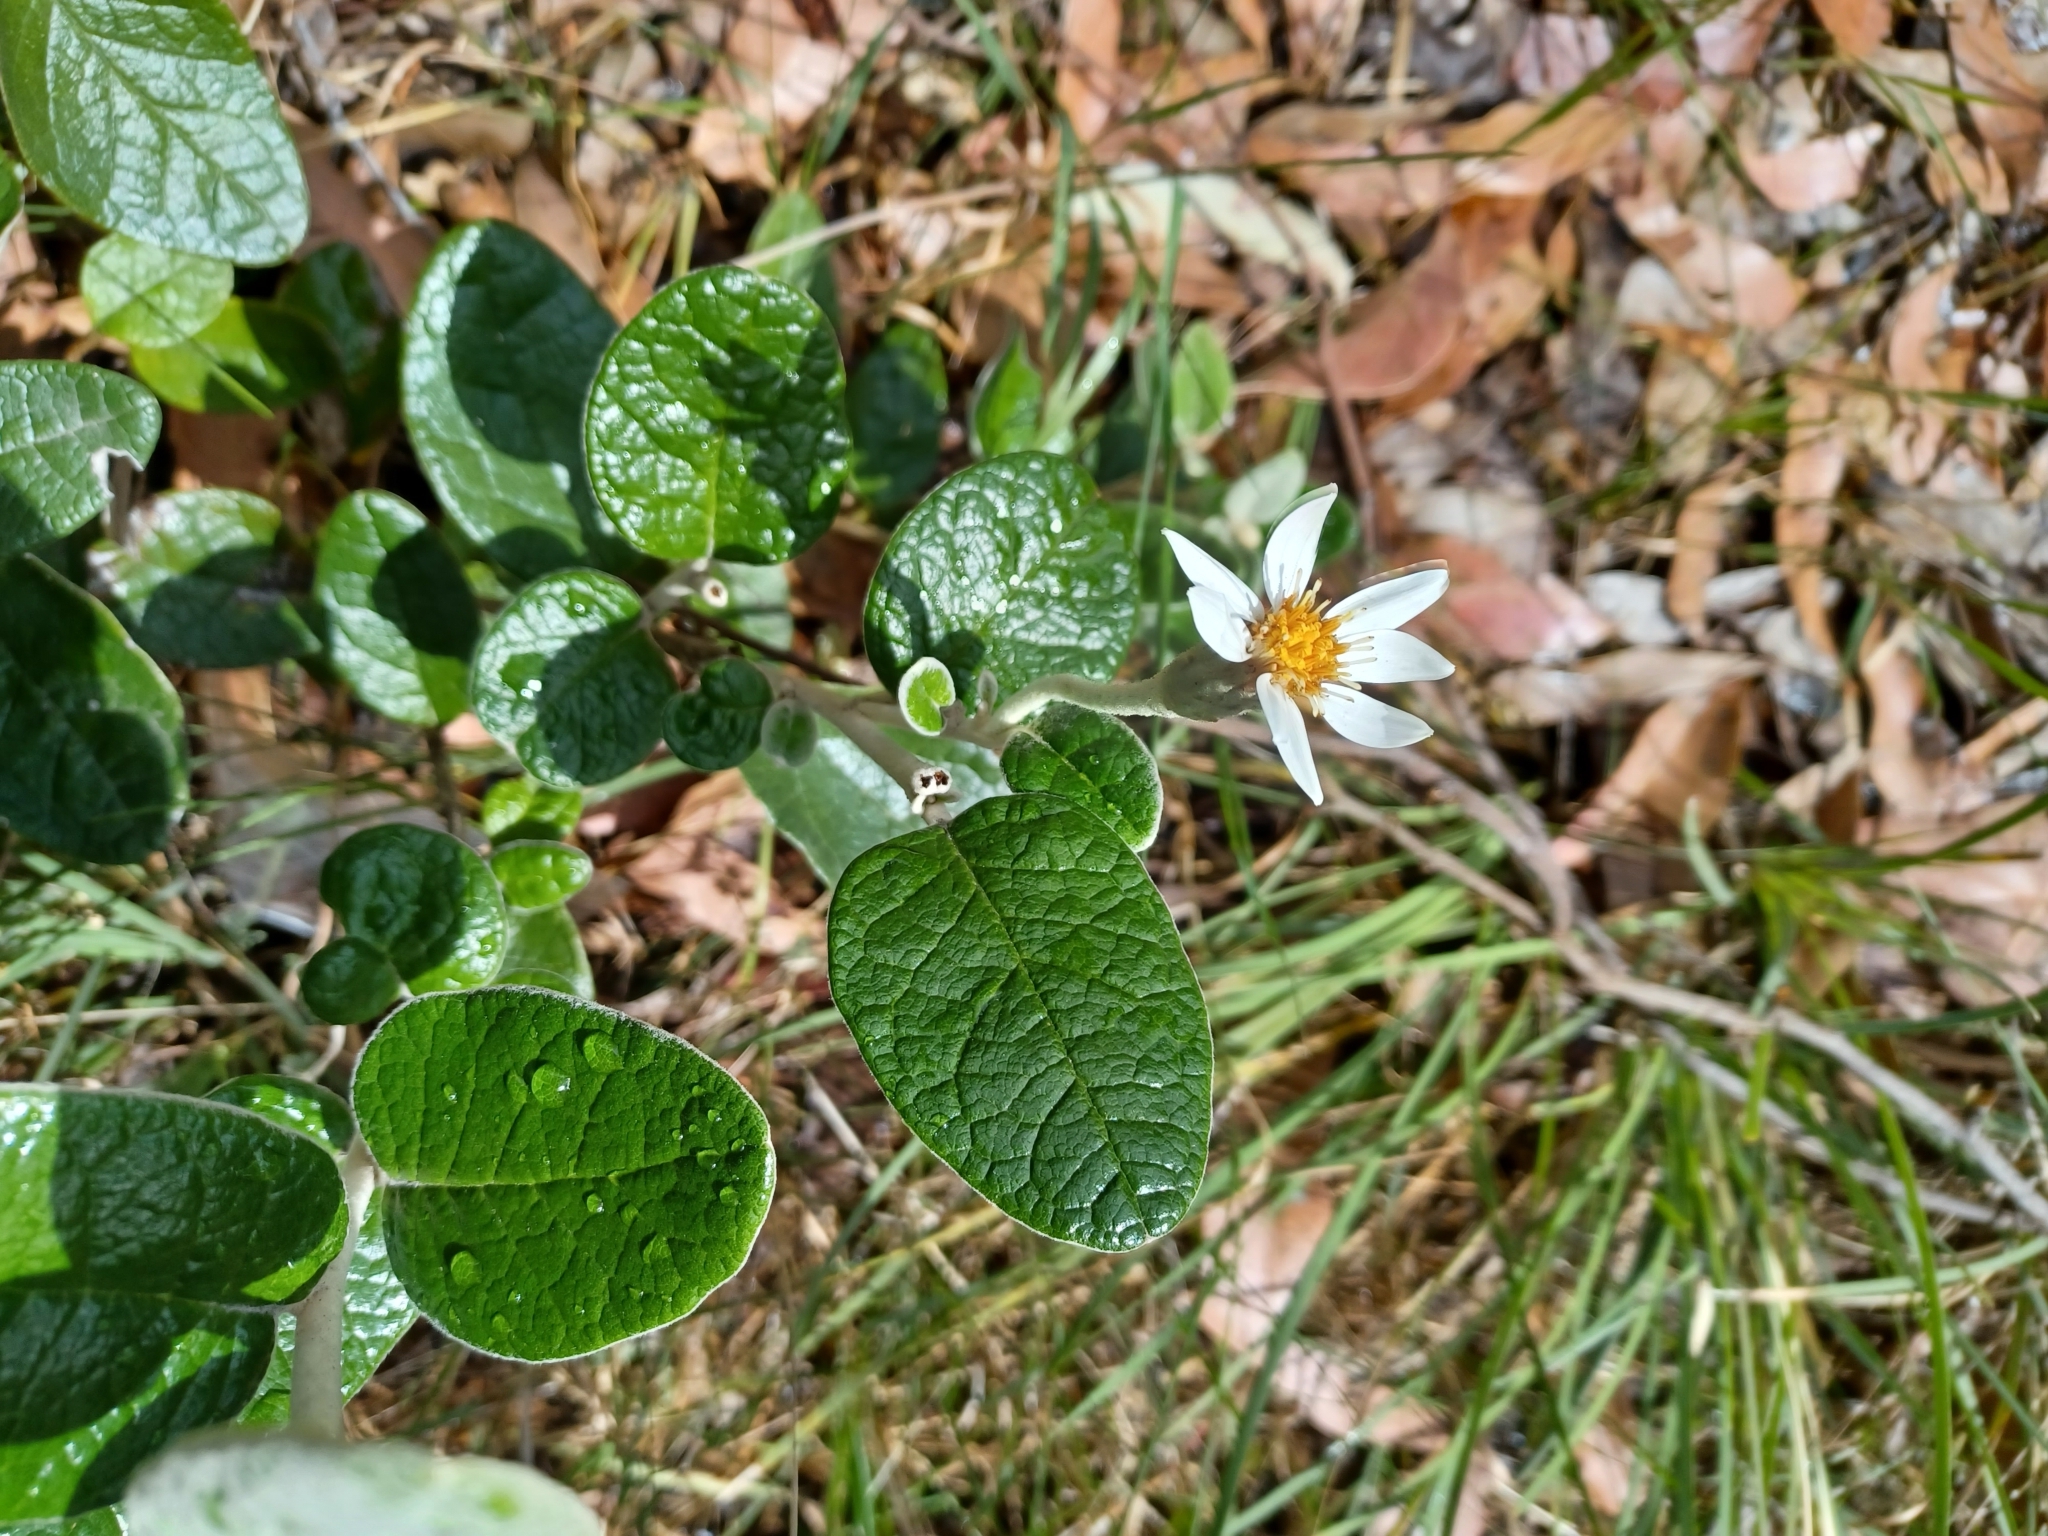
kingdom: Plantae
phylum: Tracheophyta
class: Magnoliopsida
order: Asterales
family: Asteraceae
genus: Olearia
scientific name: Olearia pannosa
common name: Velvet daisybush
